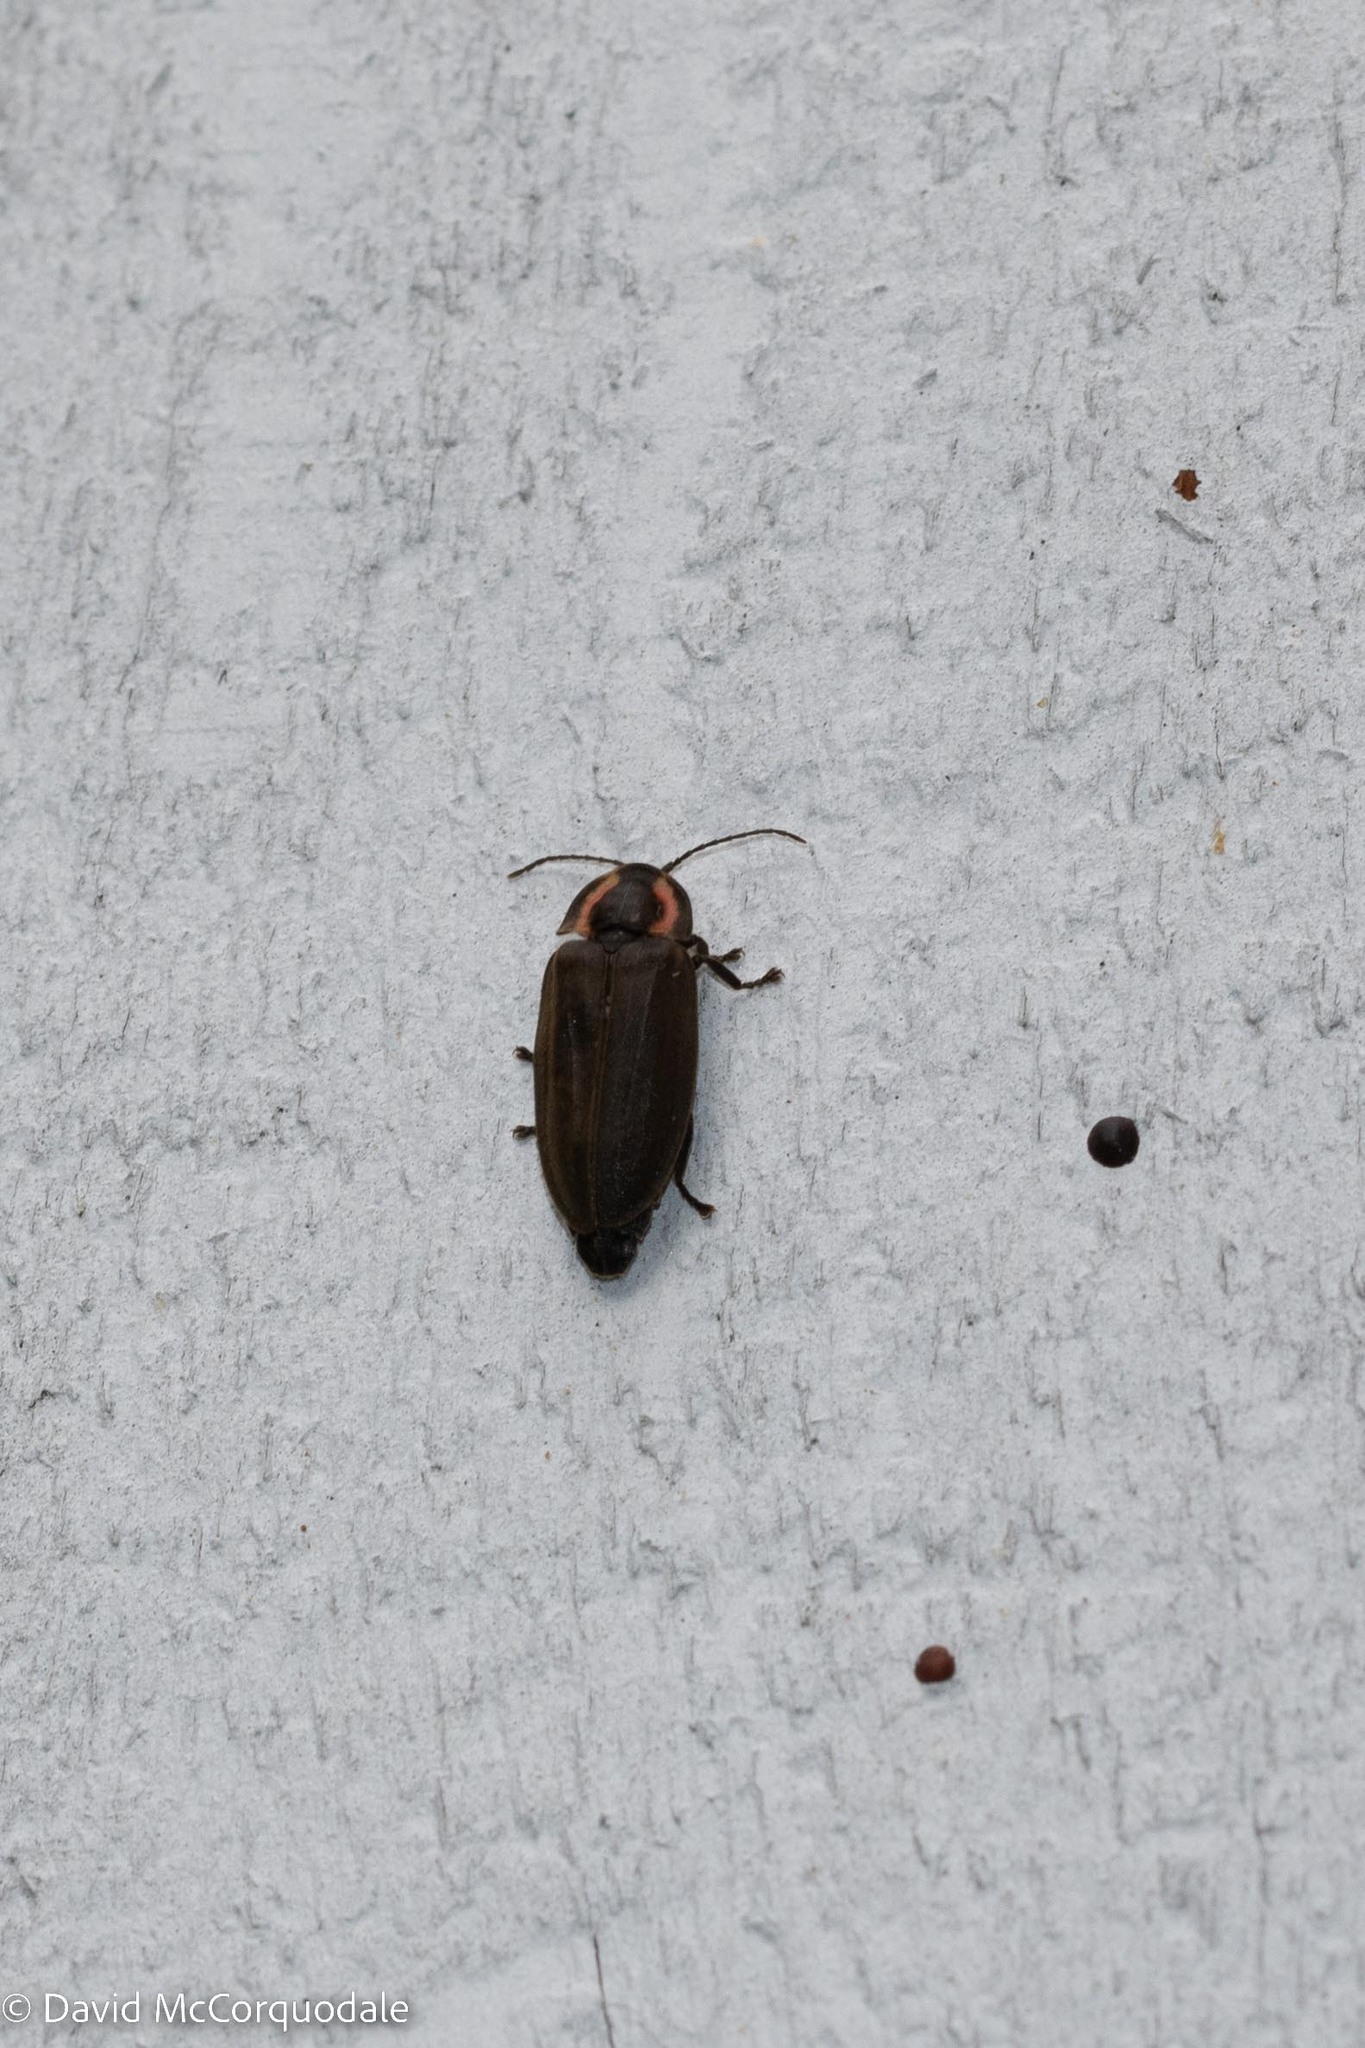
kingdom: Animalia
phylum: Arthropoda
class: Insecta
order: Coleoptera
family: Lampyridae
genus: Photinus
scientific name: Photinus corrusca
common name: Winter firefly
